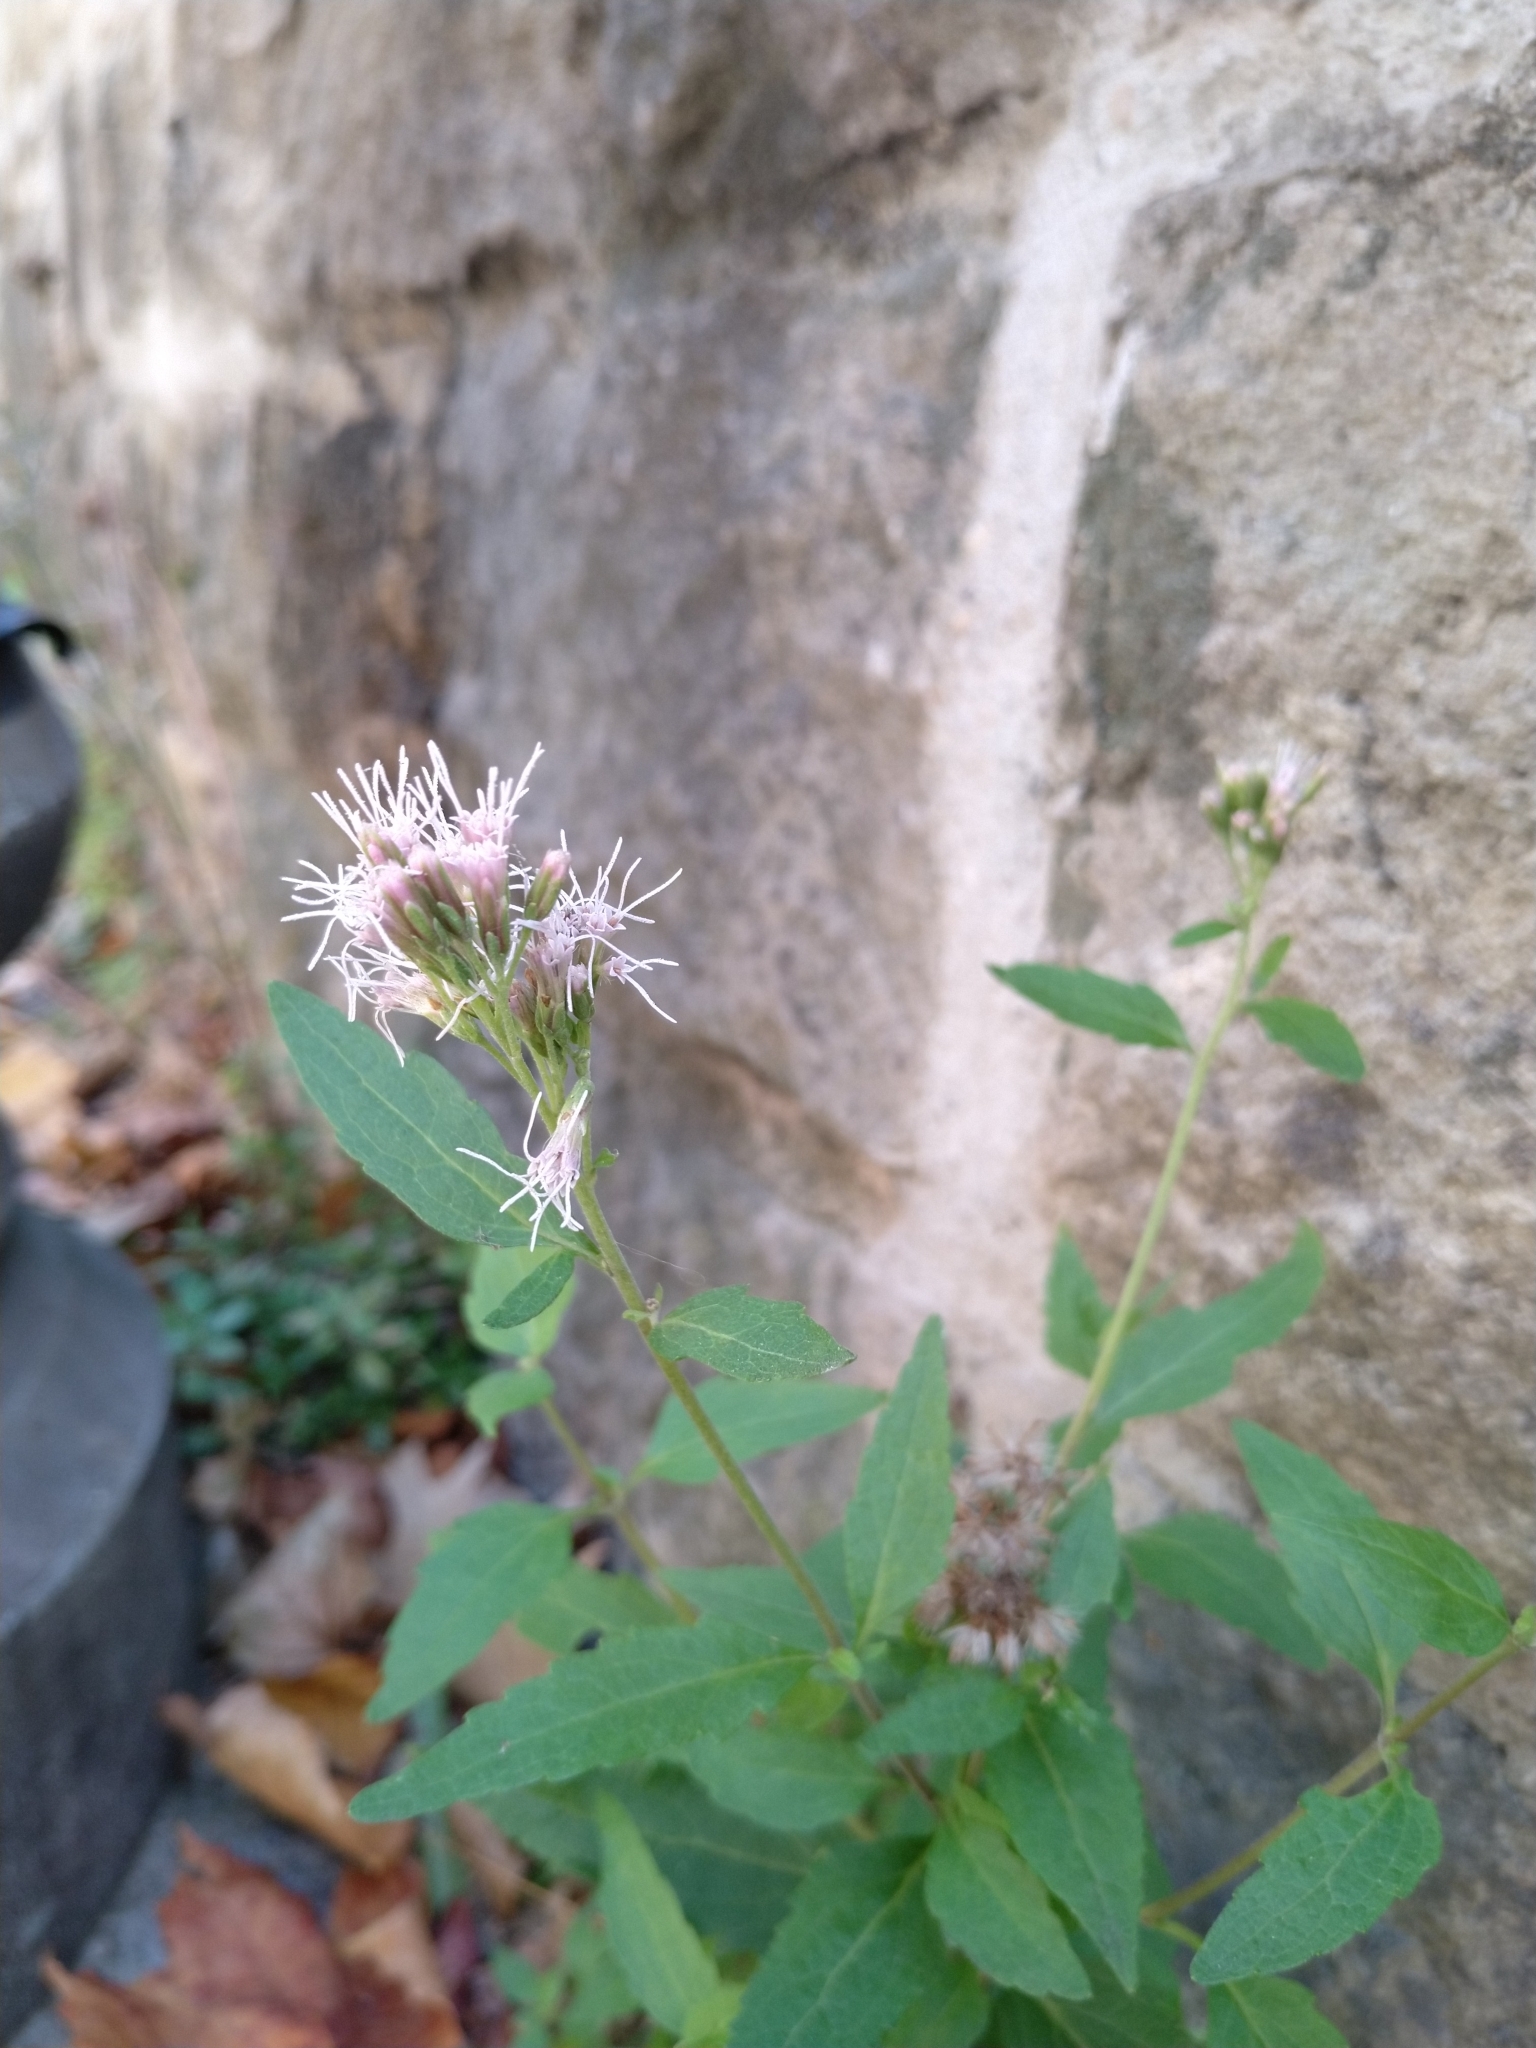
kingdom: Plantae
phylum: Tracheophyta
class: Magnoliopsida
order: Asterales
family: Asteraceae
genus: Eupatorium
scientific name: Eupatorium cannabinum
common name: Hemp-agrimony
